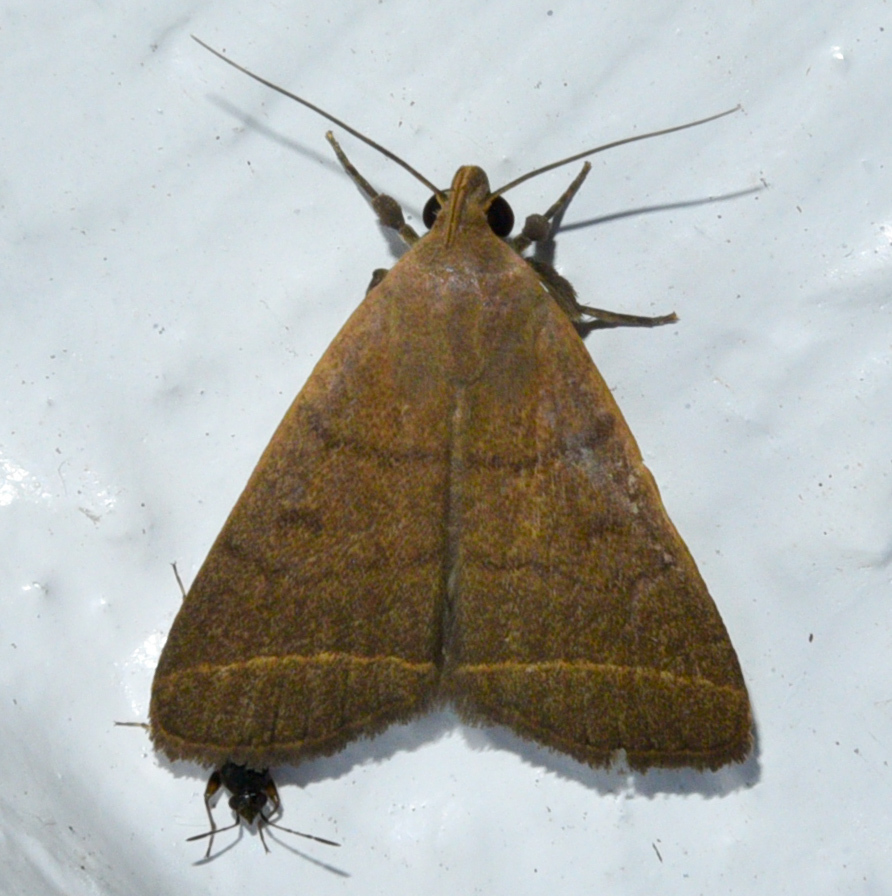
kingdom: Animalia
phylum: Arthropoda
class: Insecta
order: Lepidoptera
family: Erebidae
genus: Simplicia
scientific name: Simplicia cornicalis
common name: Tiki hut litter moth
